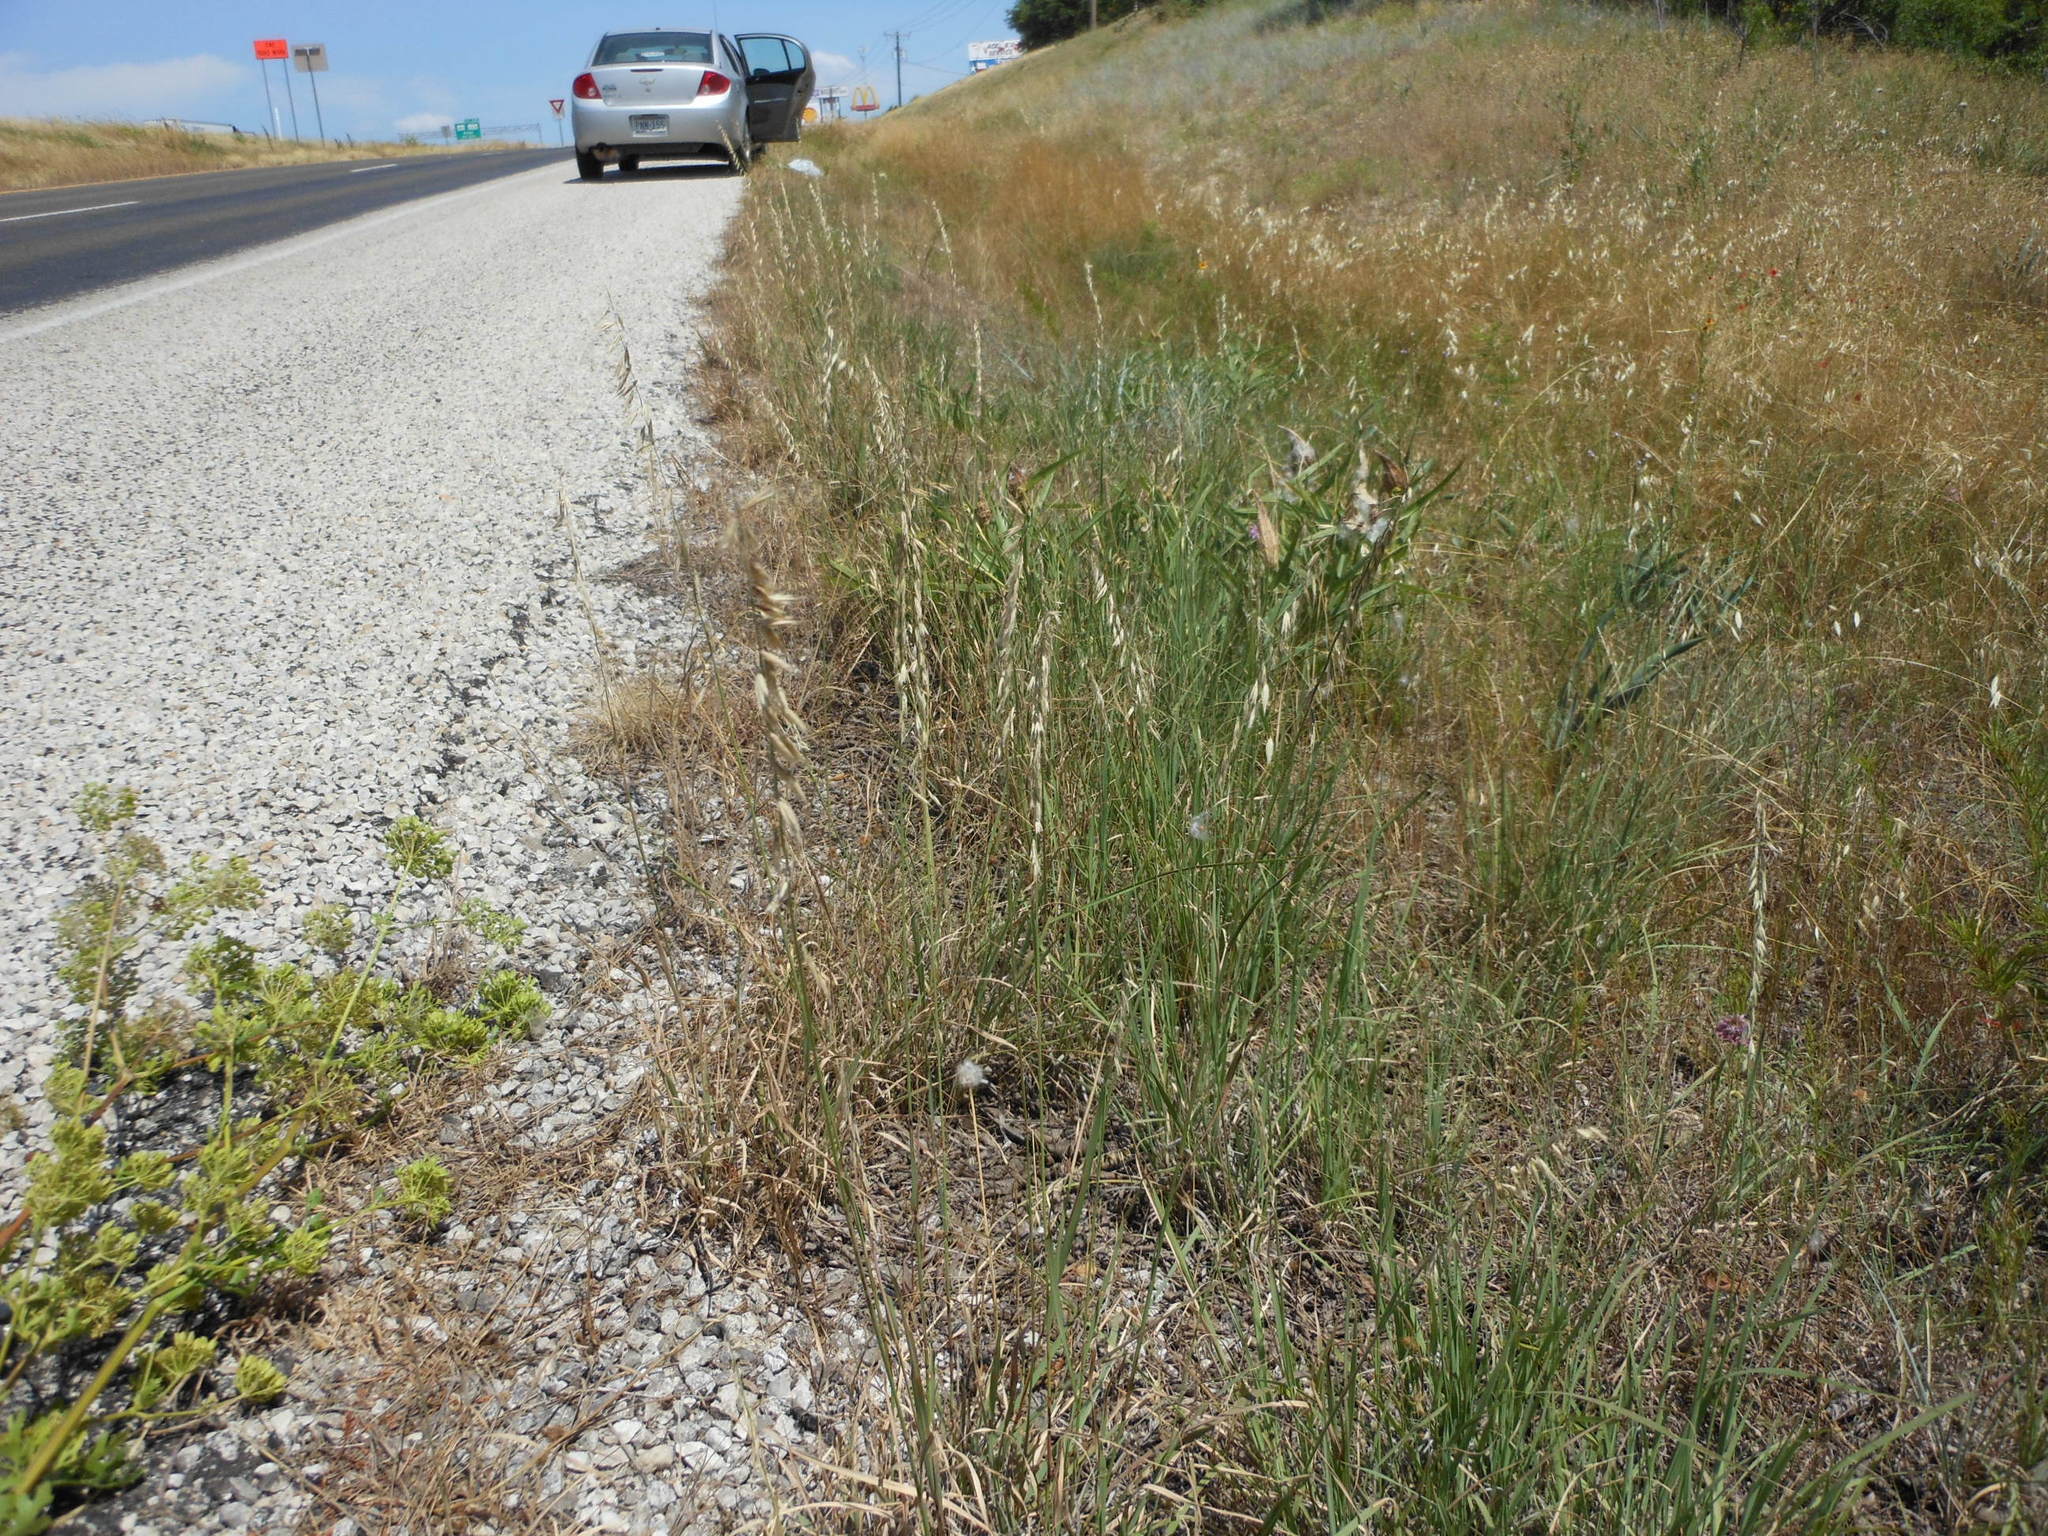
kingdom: Plantae
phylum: Tracheophyta
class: Liliopsida
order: Poales
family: Poaceae
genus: Bouteloua
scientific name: Bouteloua curtipendula
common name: Side-oats grama
